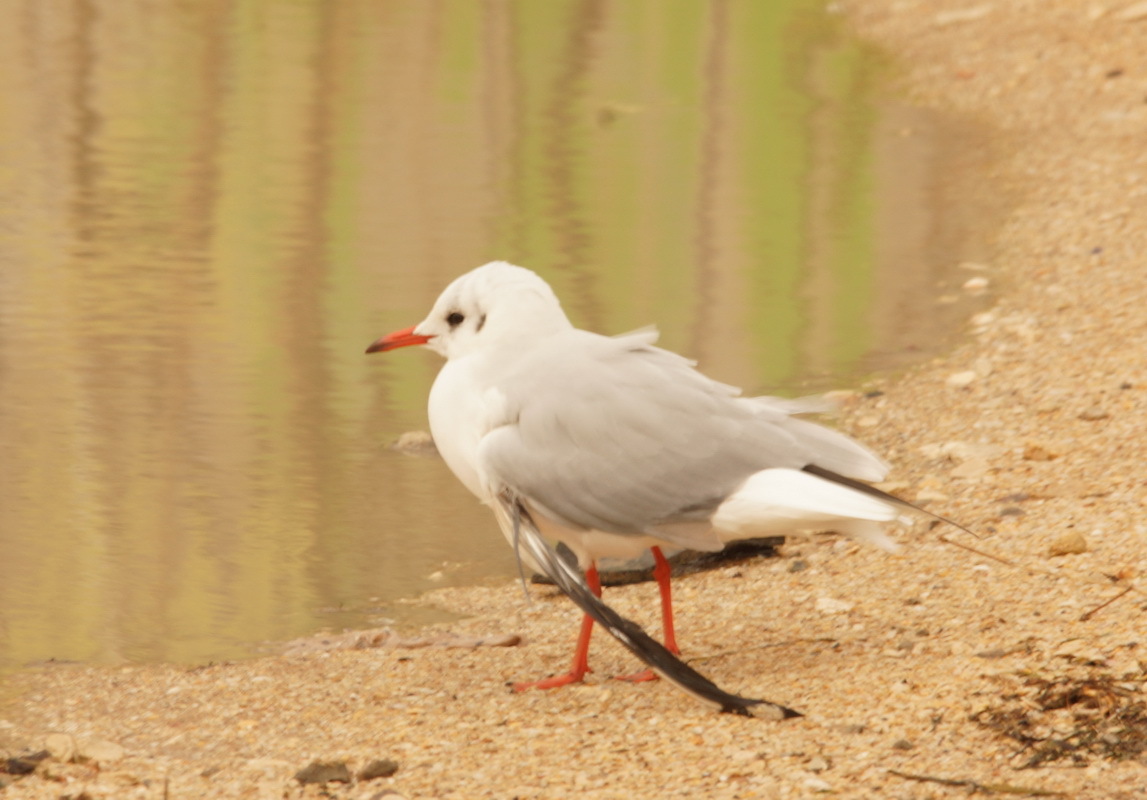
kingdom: Animalia
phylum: Chordata
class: Aves
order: Charadriiformes
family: Laridae
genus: Chroicocephalus
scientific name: Chroicocephalus ridibundus
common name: Black-headed gull
